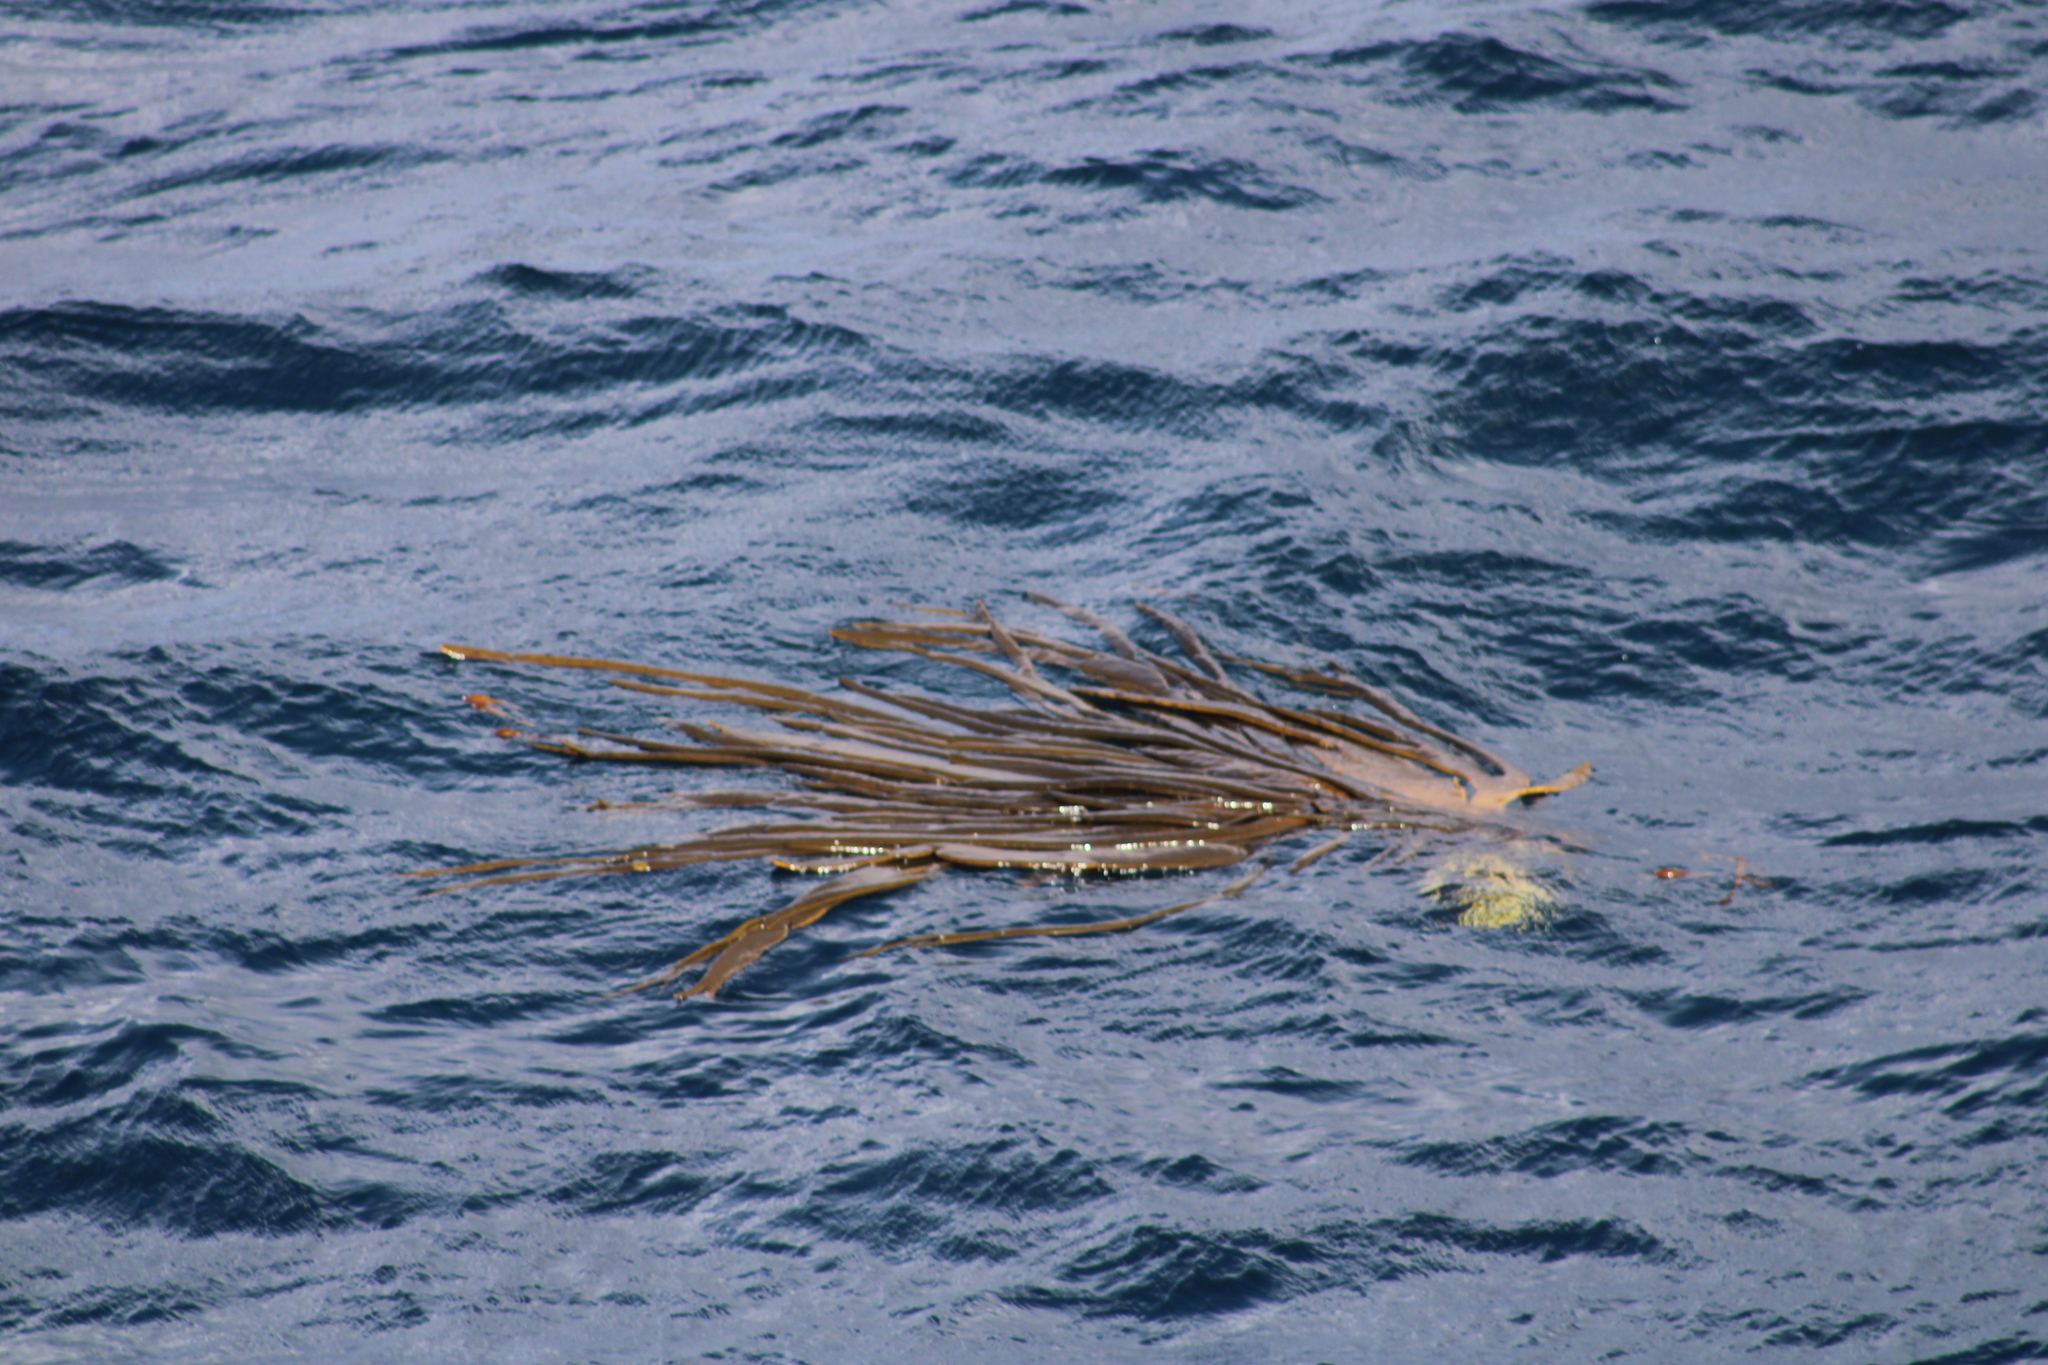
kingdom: Chromista
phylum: Ochrophyta
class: Phaeophyceae
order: Fucales
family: Durvillaeaceae
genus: Durvillaea
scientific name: Durvillaea antarctica
